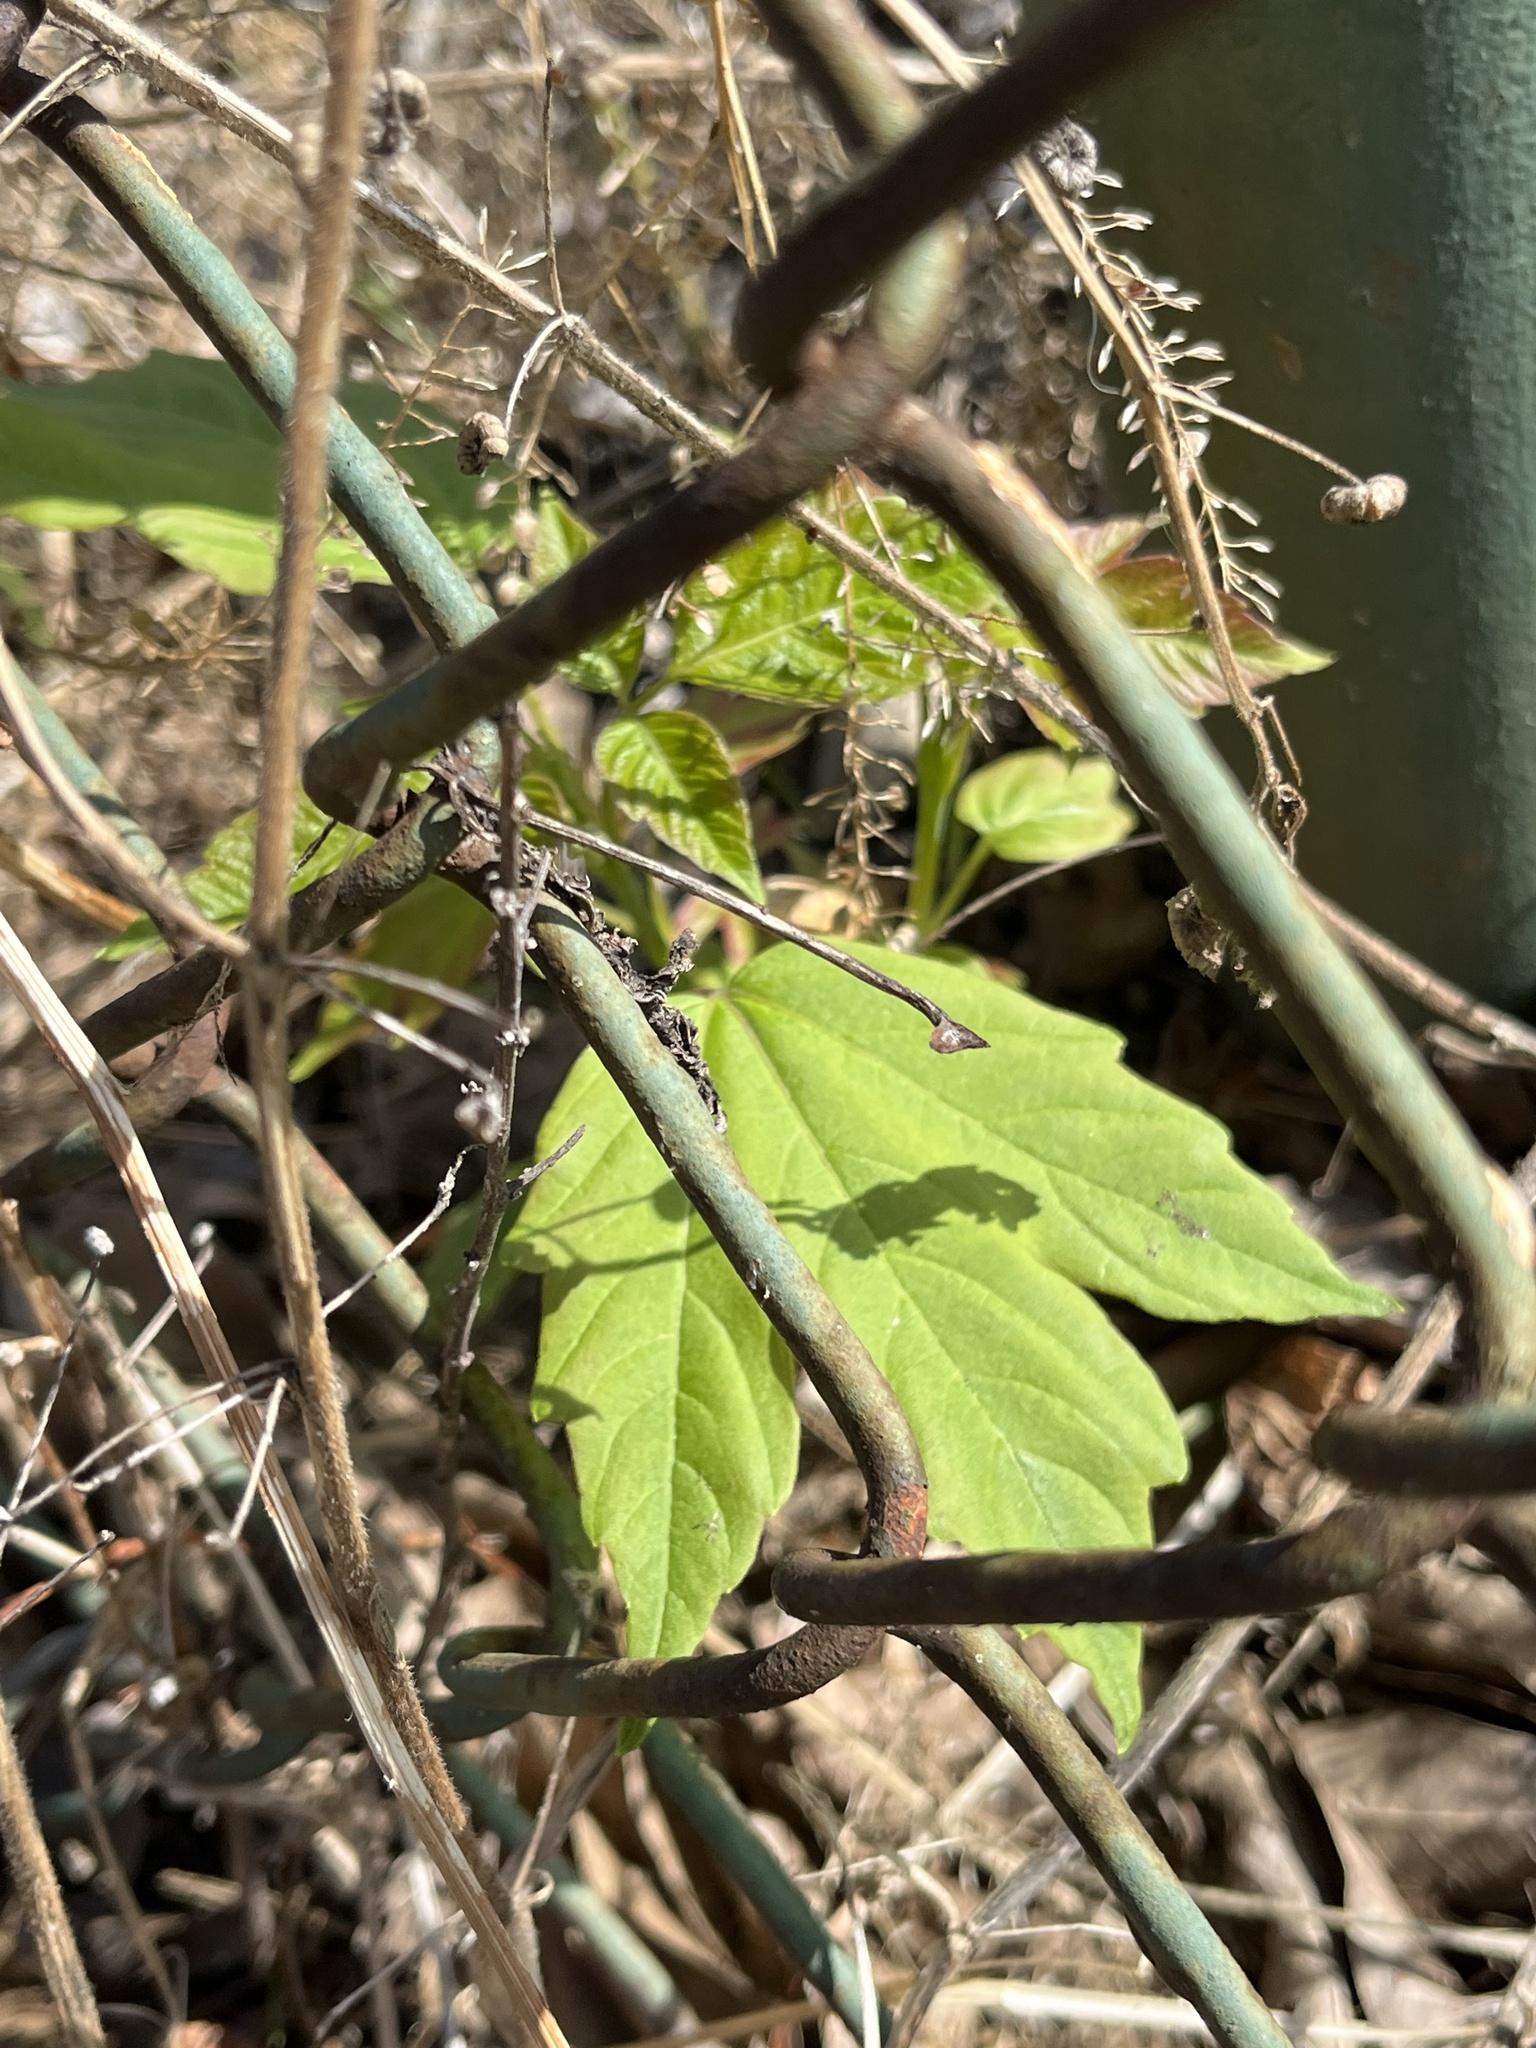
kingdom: Plantae
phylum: Tracheophyta
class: Magnoliopsida
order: Sapindales
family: Sapindaceae
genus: Acer
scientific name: Acer negundo
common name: Ashleaf maple
